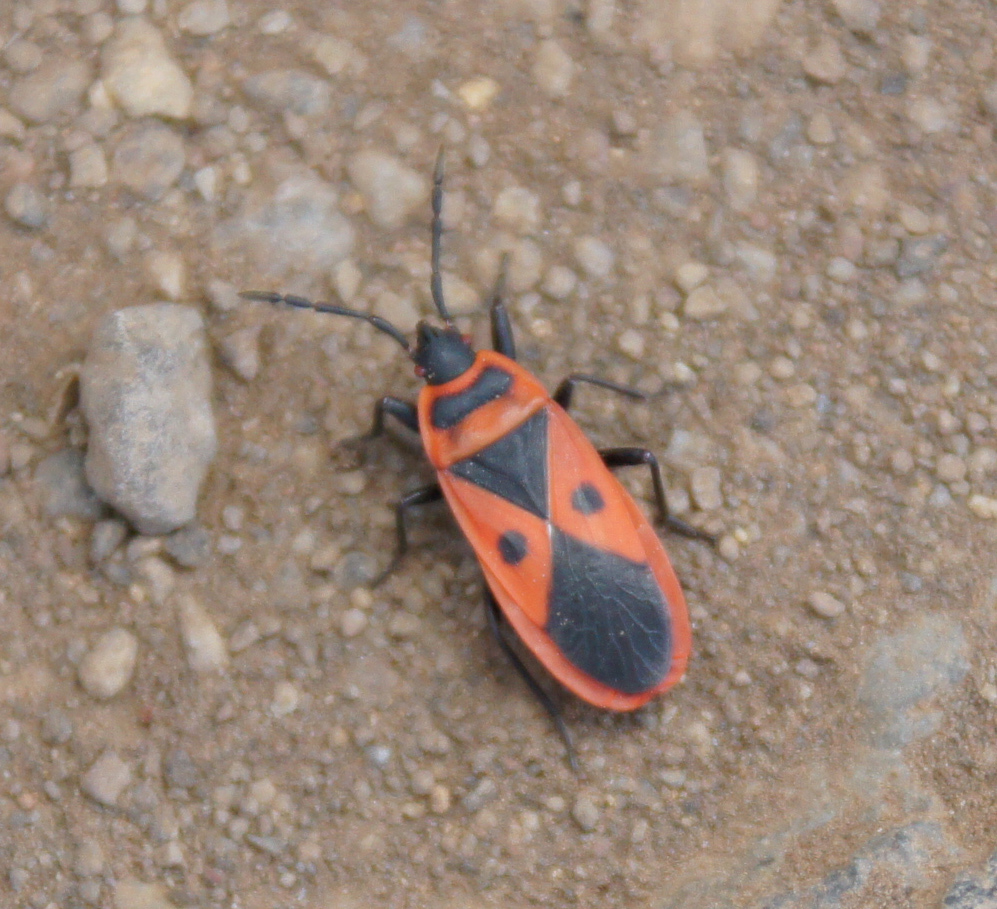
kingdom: Animalia
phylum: Arthropoda
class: Insecta
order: Hemiptera
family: Pyrrhocoridae
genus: Scantius
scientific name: Scantius aegyptius
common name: Red bug
